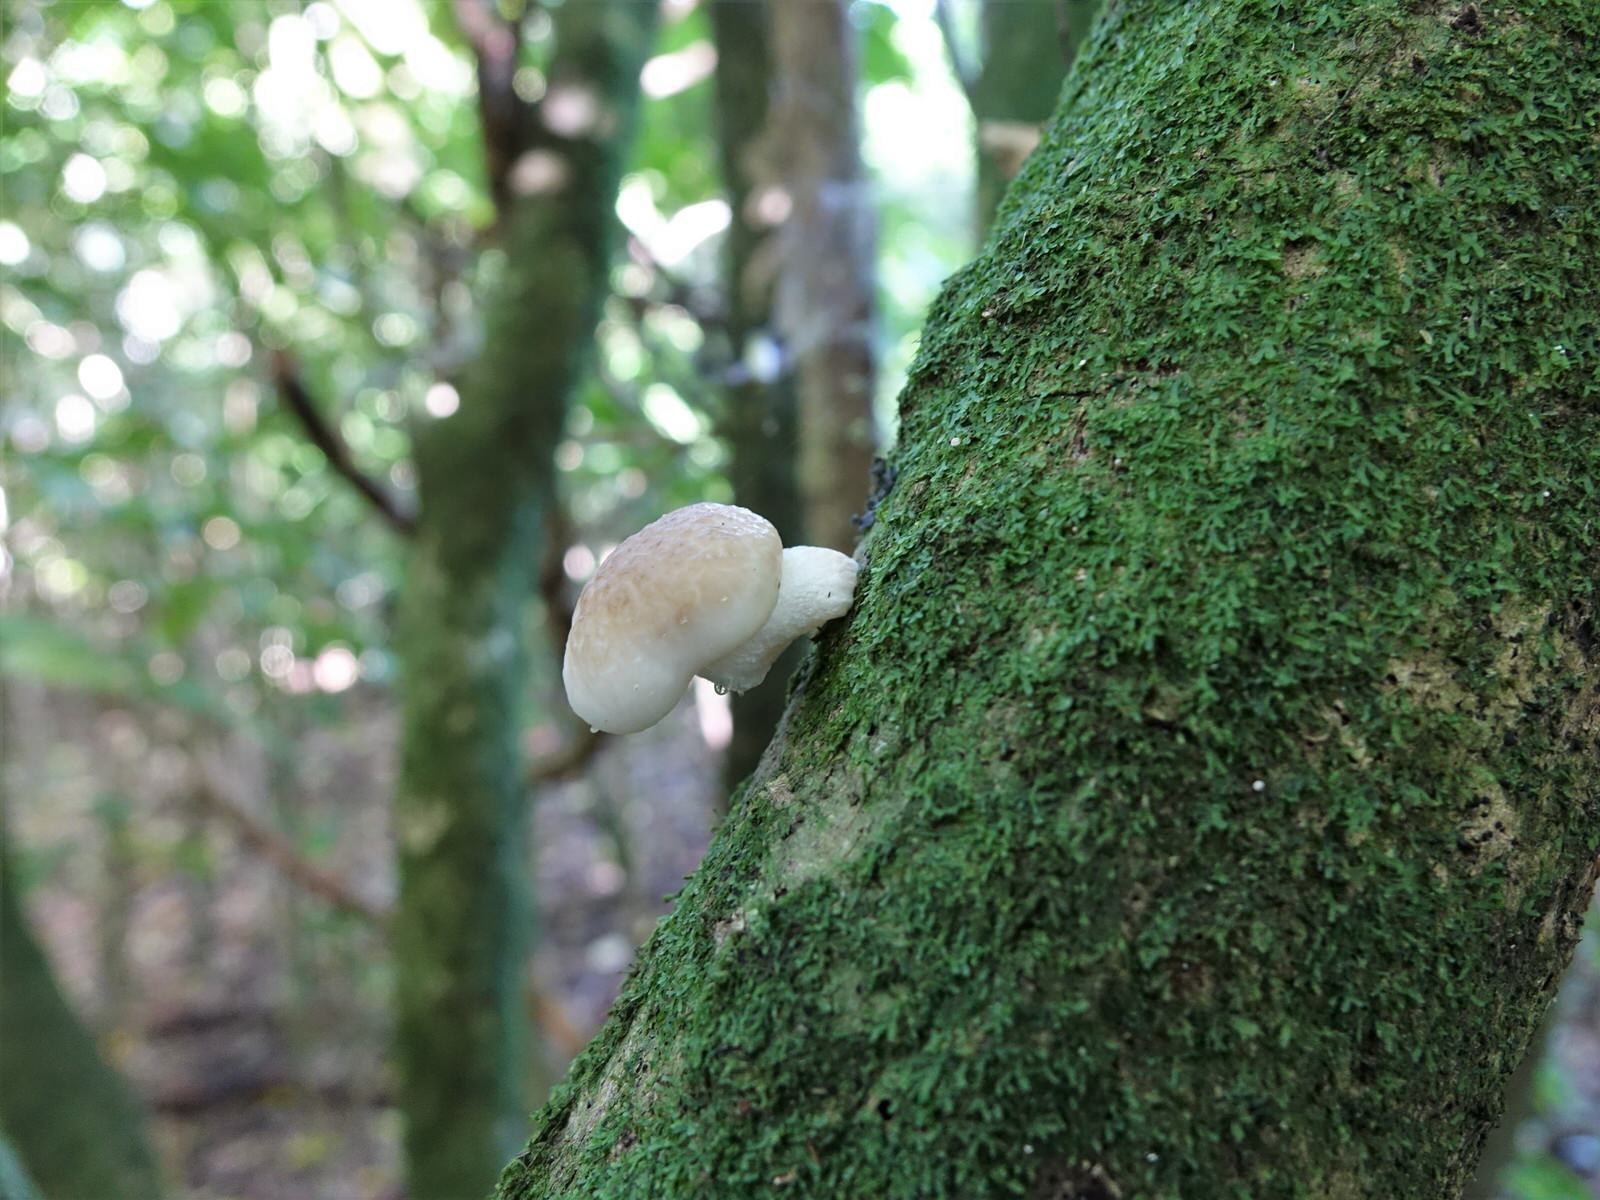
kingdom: Fungi
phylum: Basidiomycota
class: Agaricomycetes
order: Agaricales
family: Physalacriaceae
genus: Oudemansiella
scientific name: Oudemansiella australis
